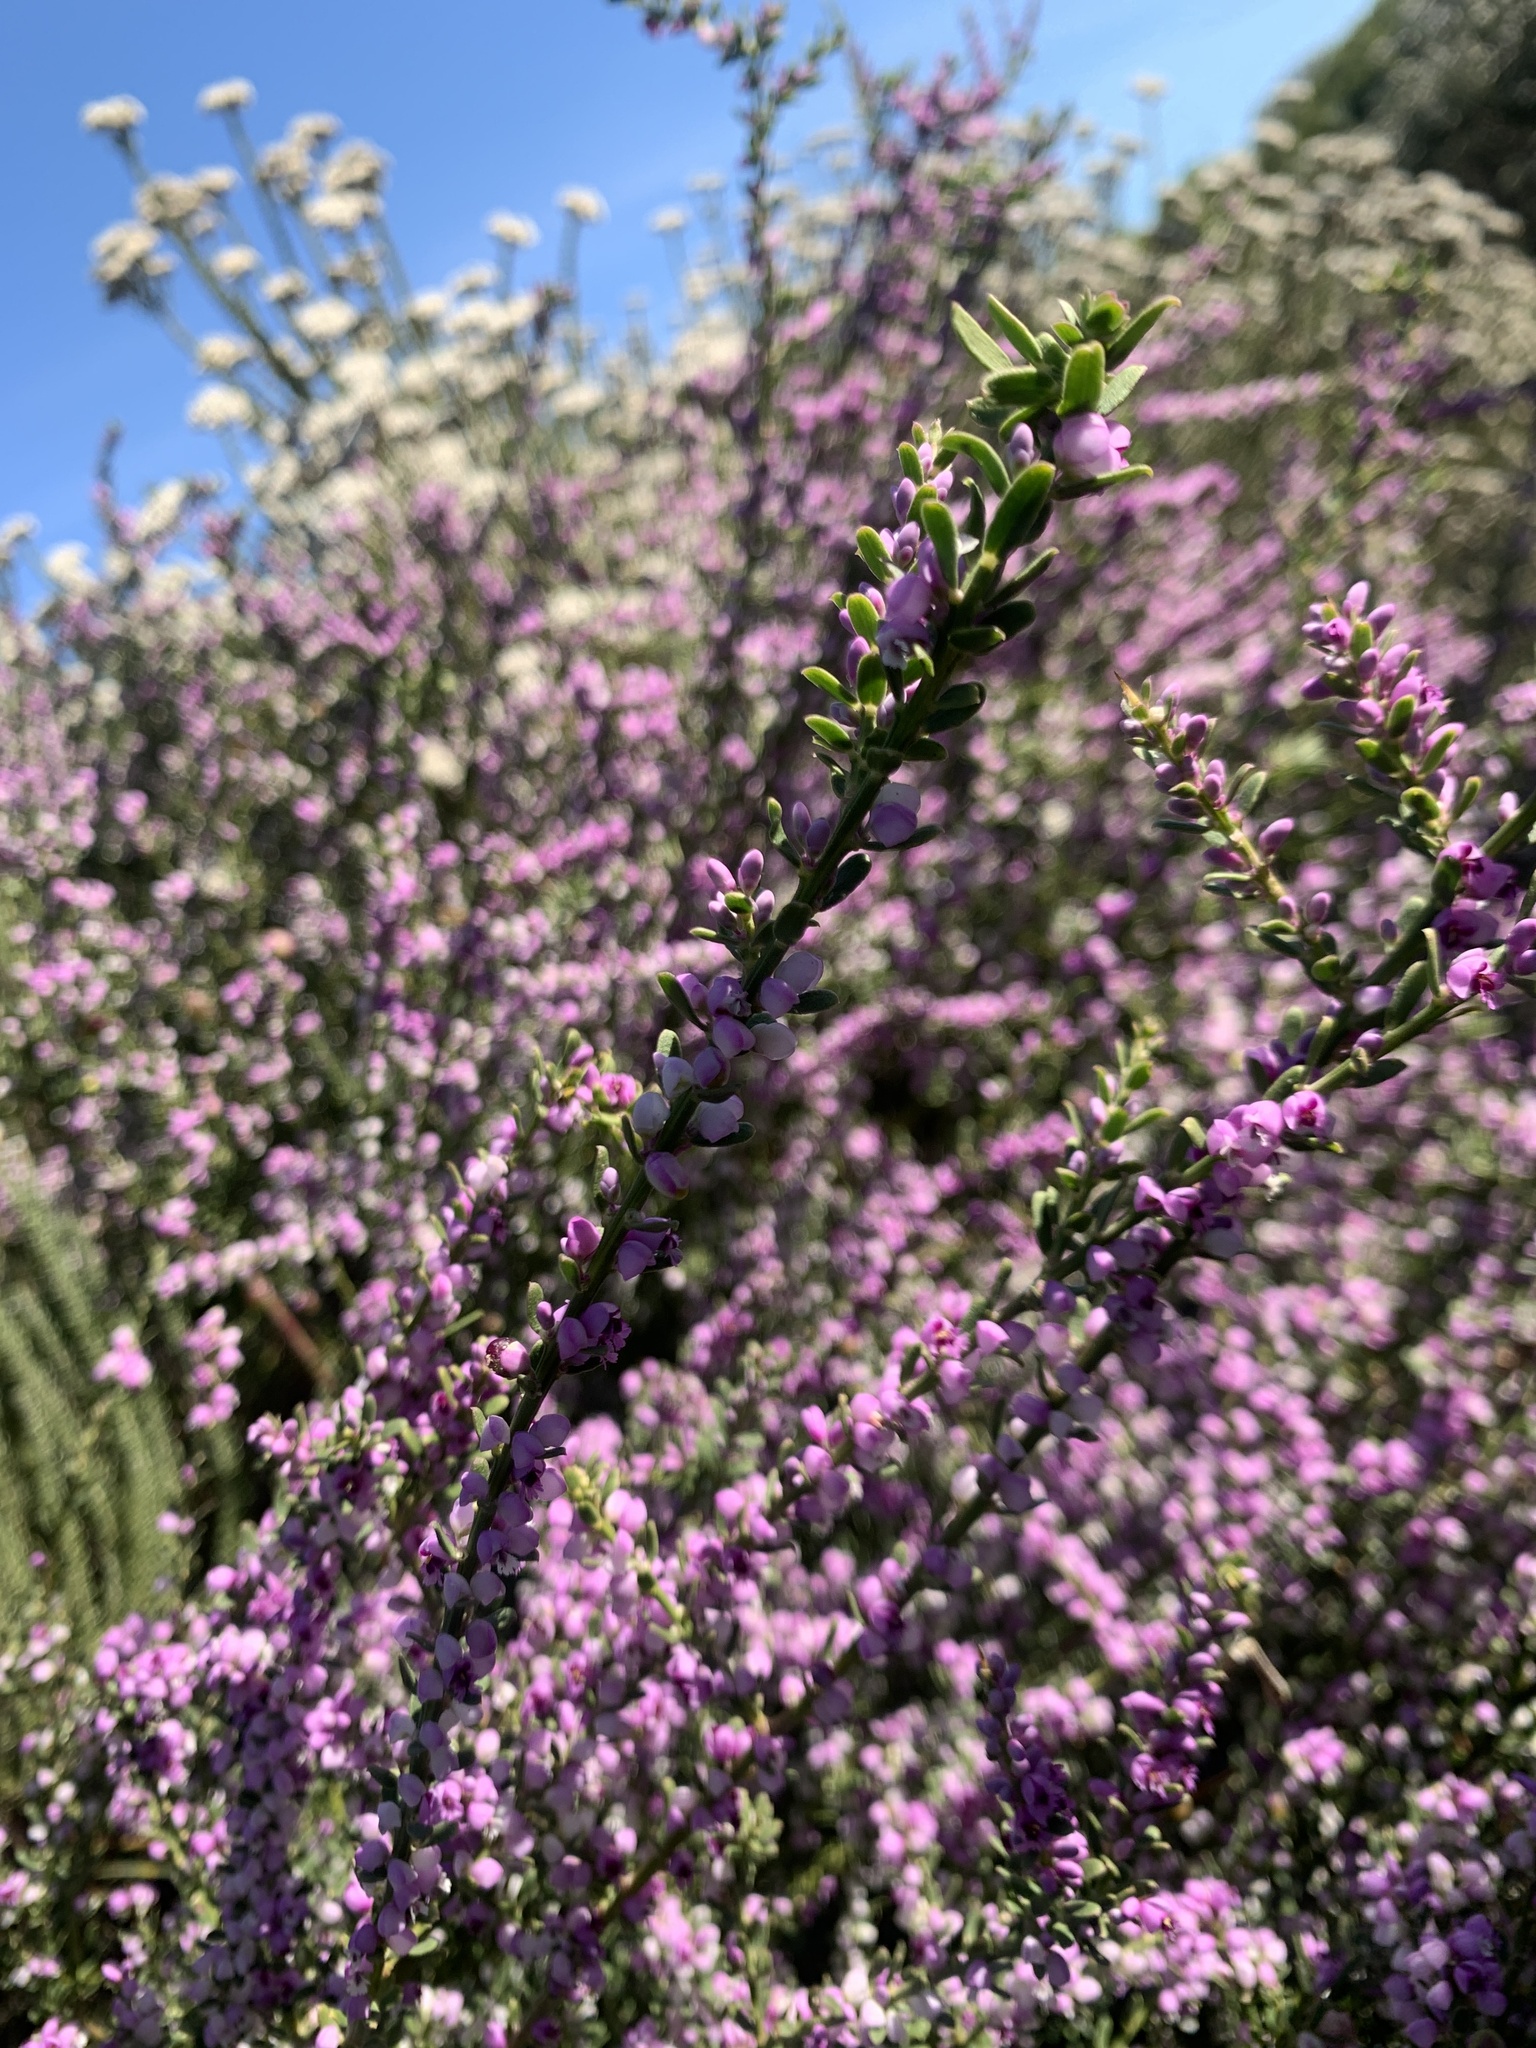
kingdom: Plantae
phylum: Tracheophyta
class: Magnoliopsida
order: Fabales
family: Polygalaceae
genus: Muraltia
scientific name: Muraltia spinosa
